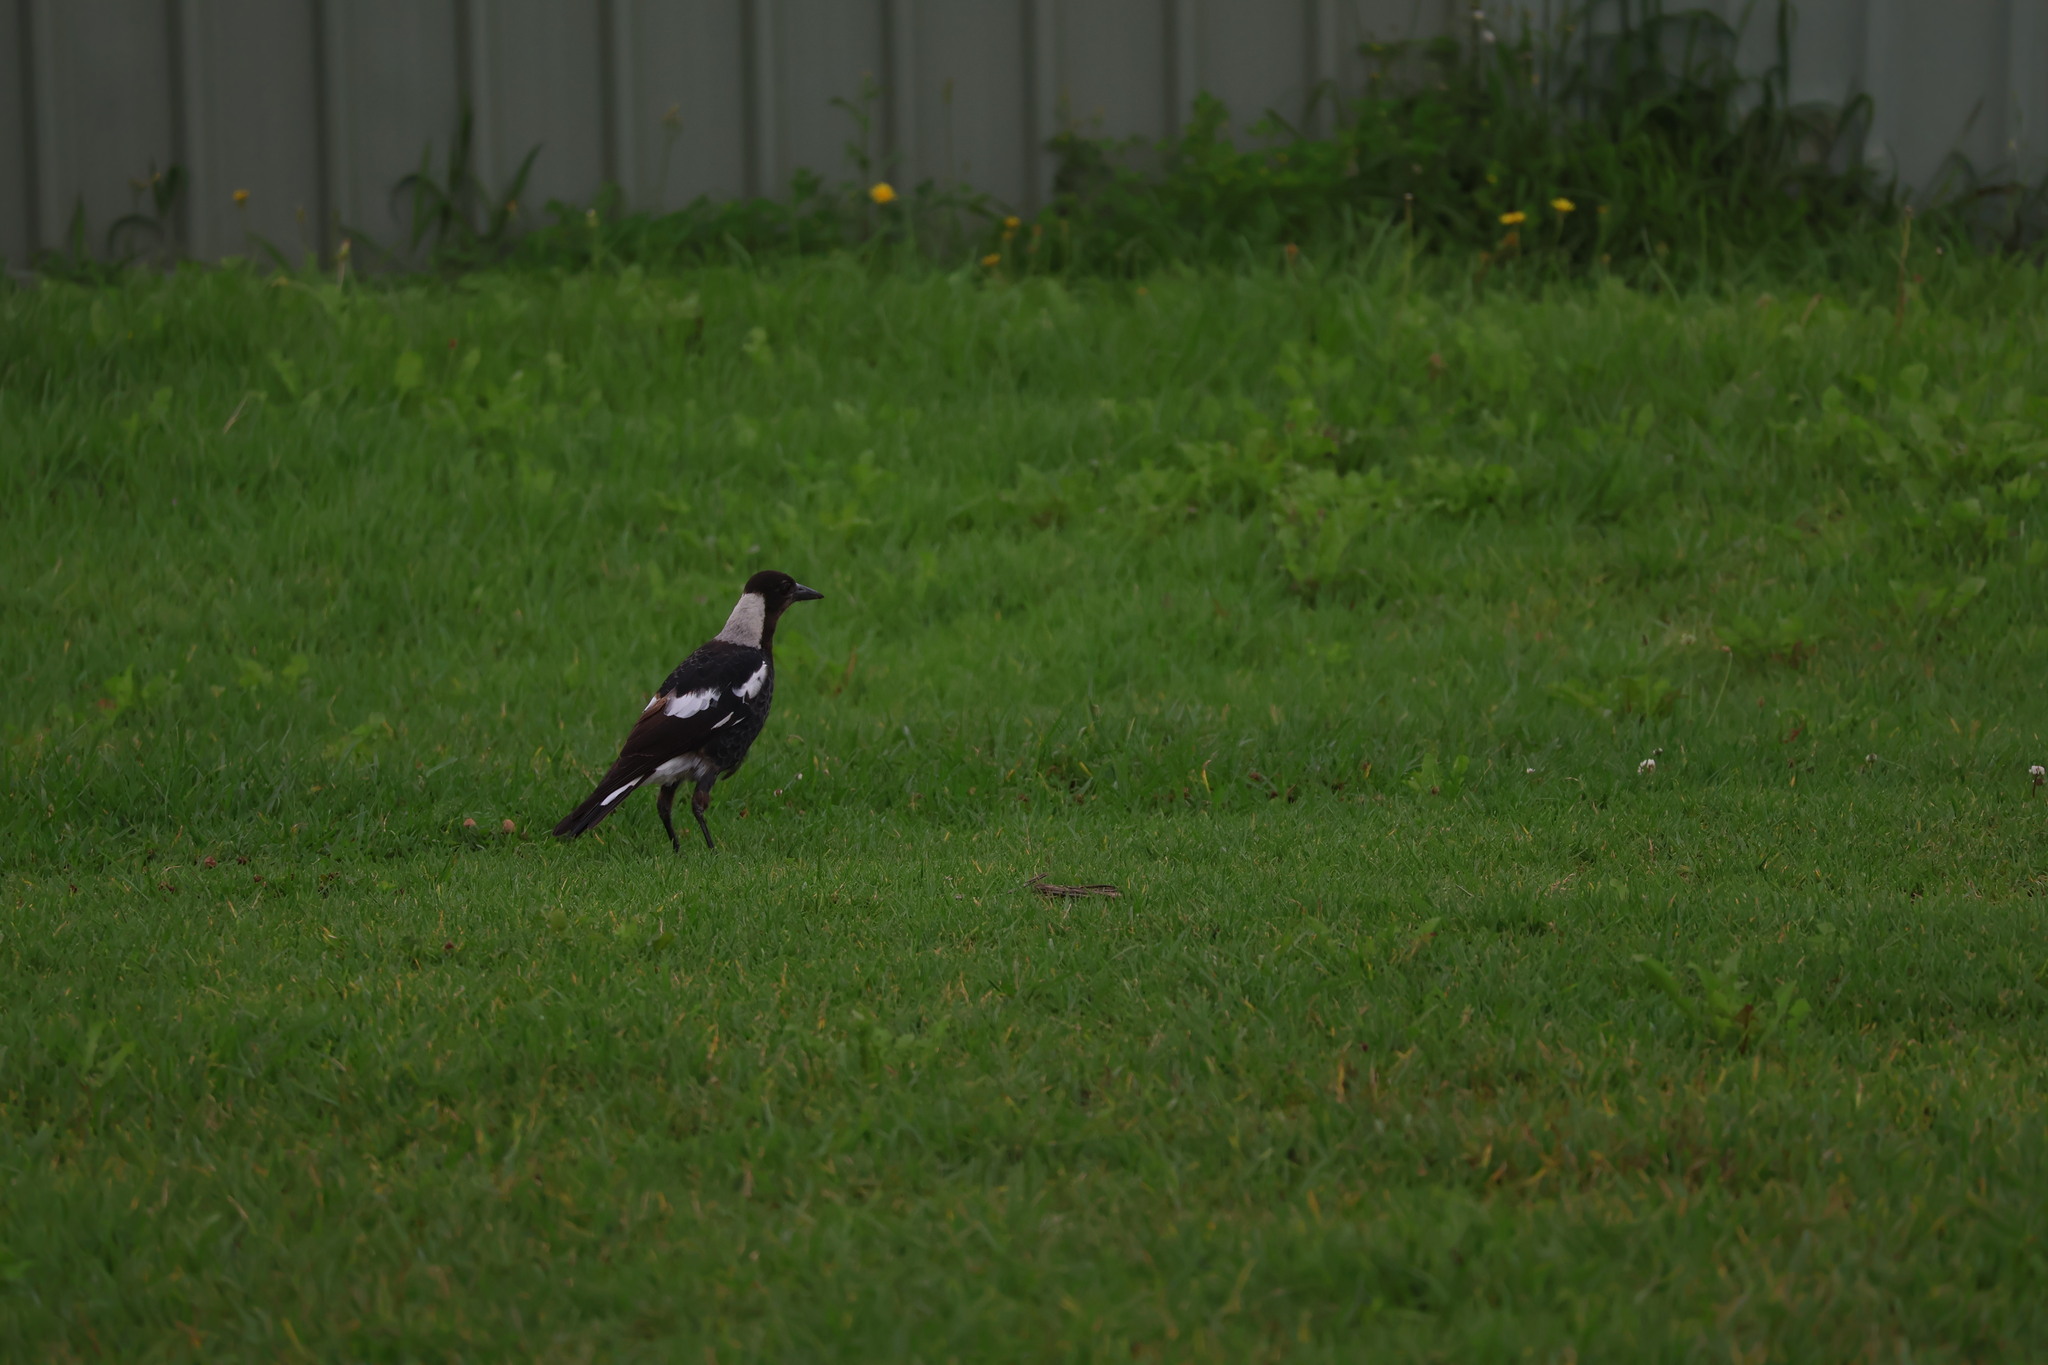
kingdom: Animalia
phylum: Chordata
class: Aves
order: Passeriformes
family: Cracticidae
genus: Gymnorhina
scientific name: Gymnorhina tibicen
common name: Australian magpie
